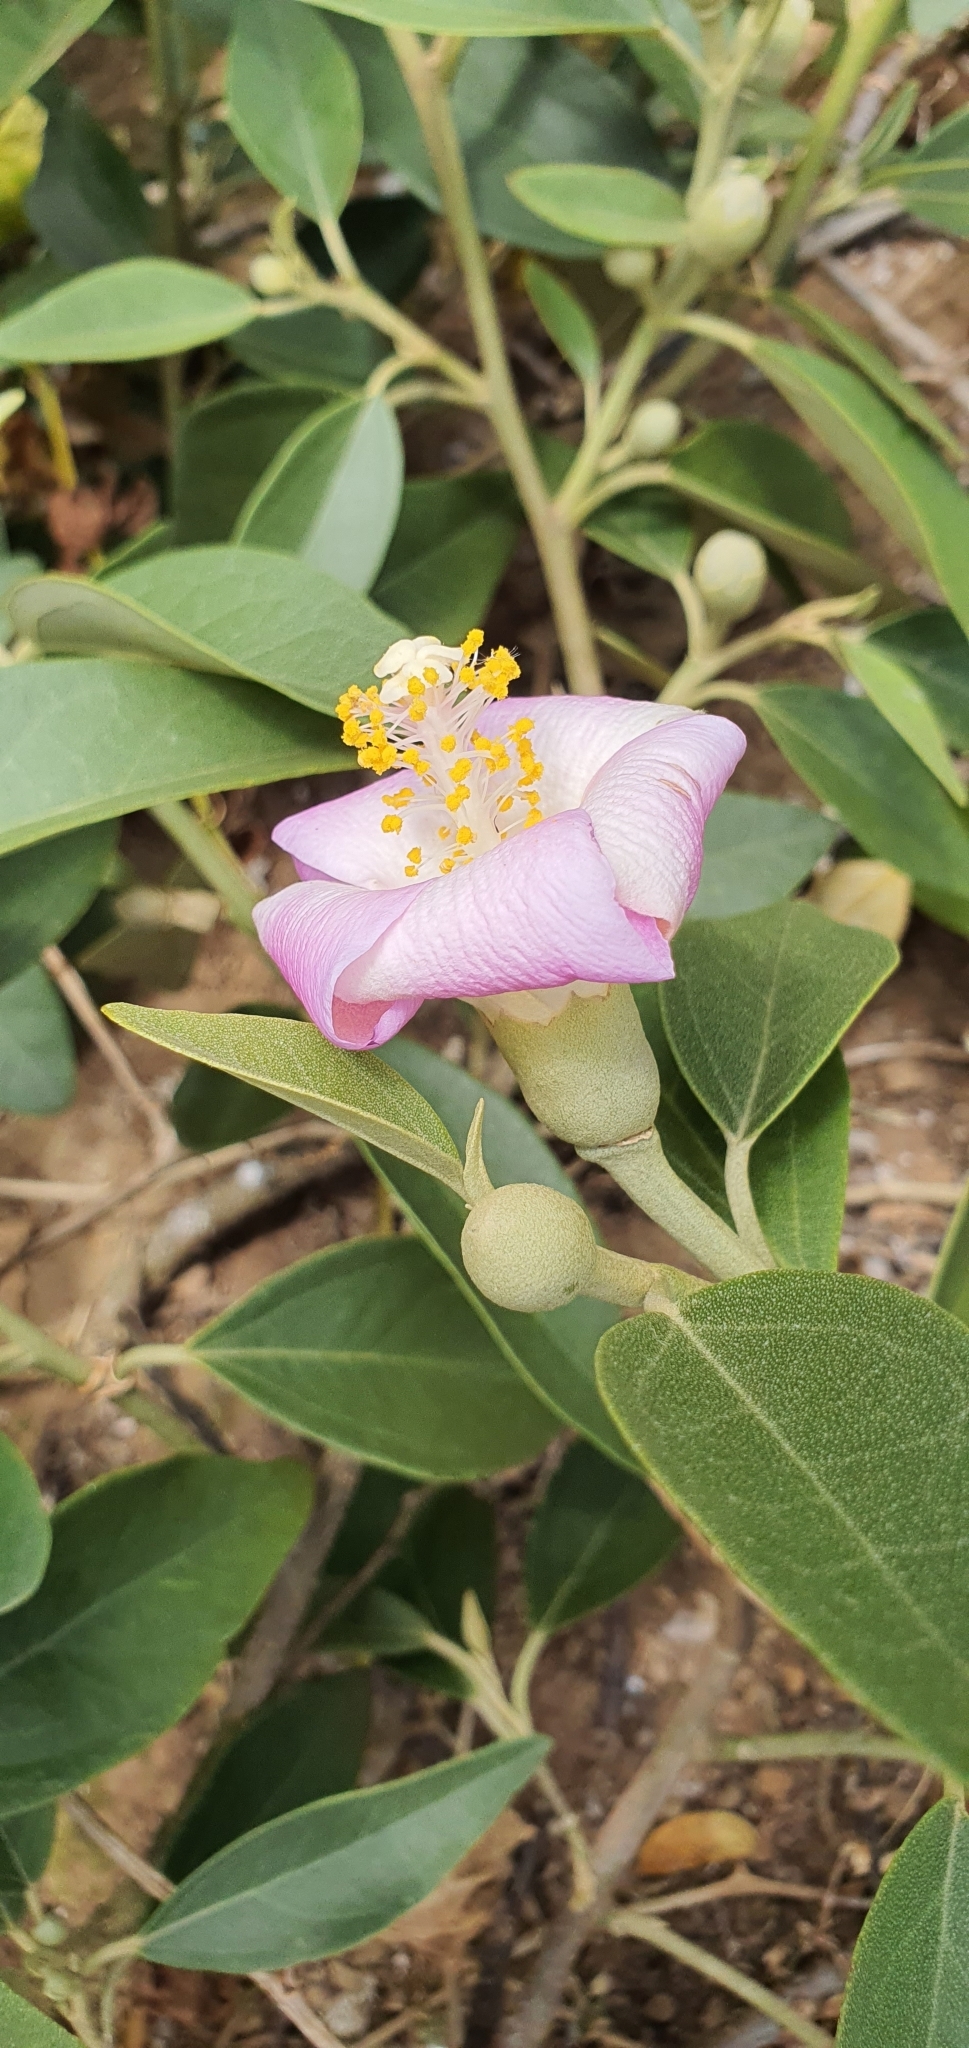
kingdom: Plantae
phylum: Tracheophyta
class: Magnoliopsida
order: Malvales
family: Malvaceae
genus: Lagunaria
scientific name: Lagunaria patersonia
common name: Cow itch tree
